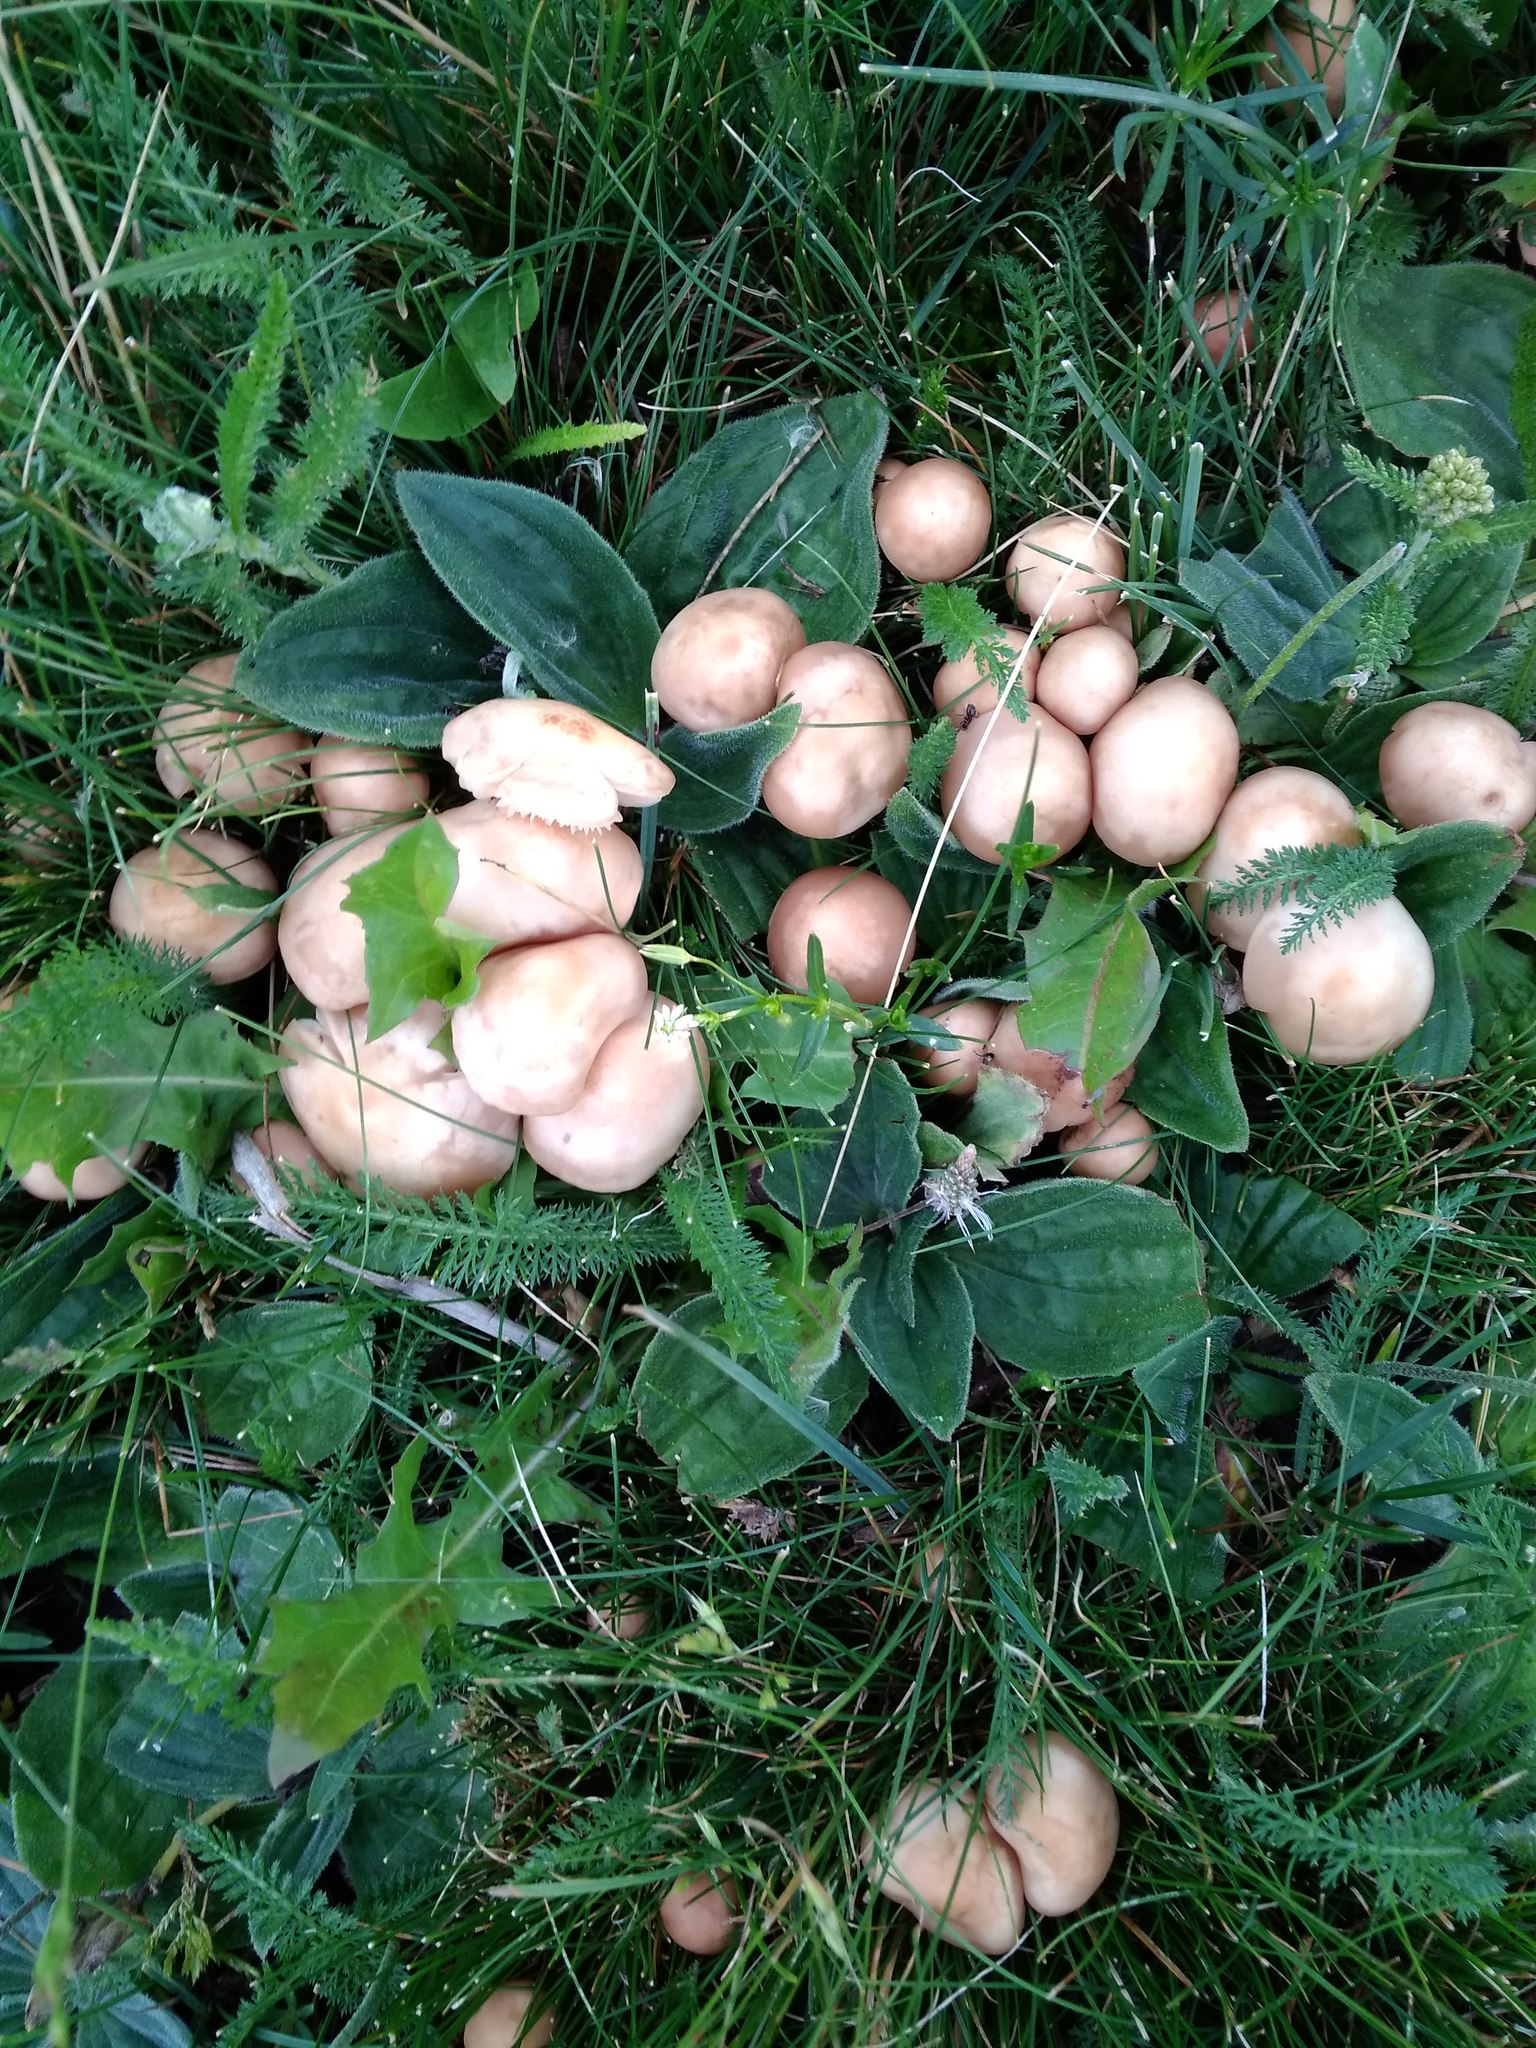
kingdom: Fungi
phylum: Basidiomycota
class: Agaricomycetes
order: Agaricales
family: Marasmiaceae
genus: Marasmius
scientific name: Marasmius oreades
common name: Fairy ring champignon
